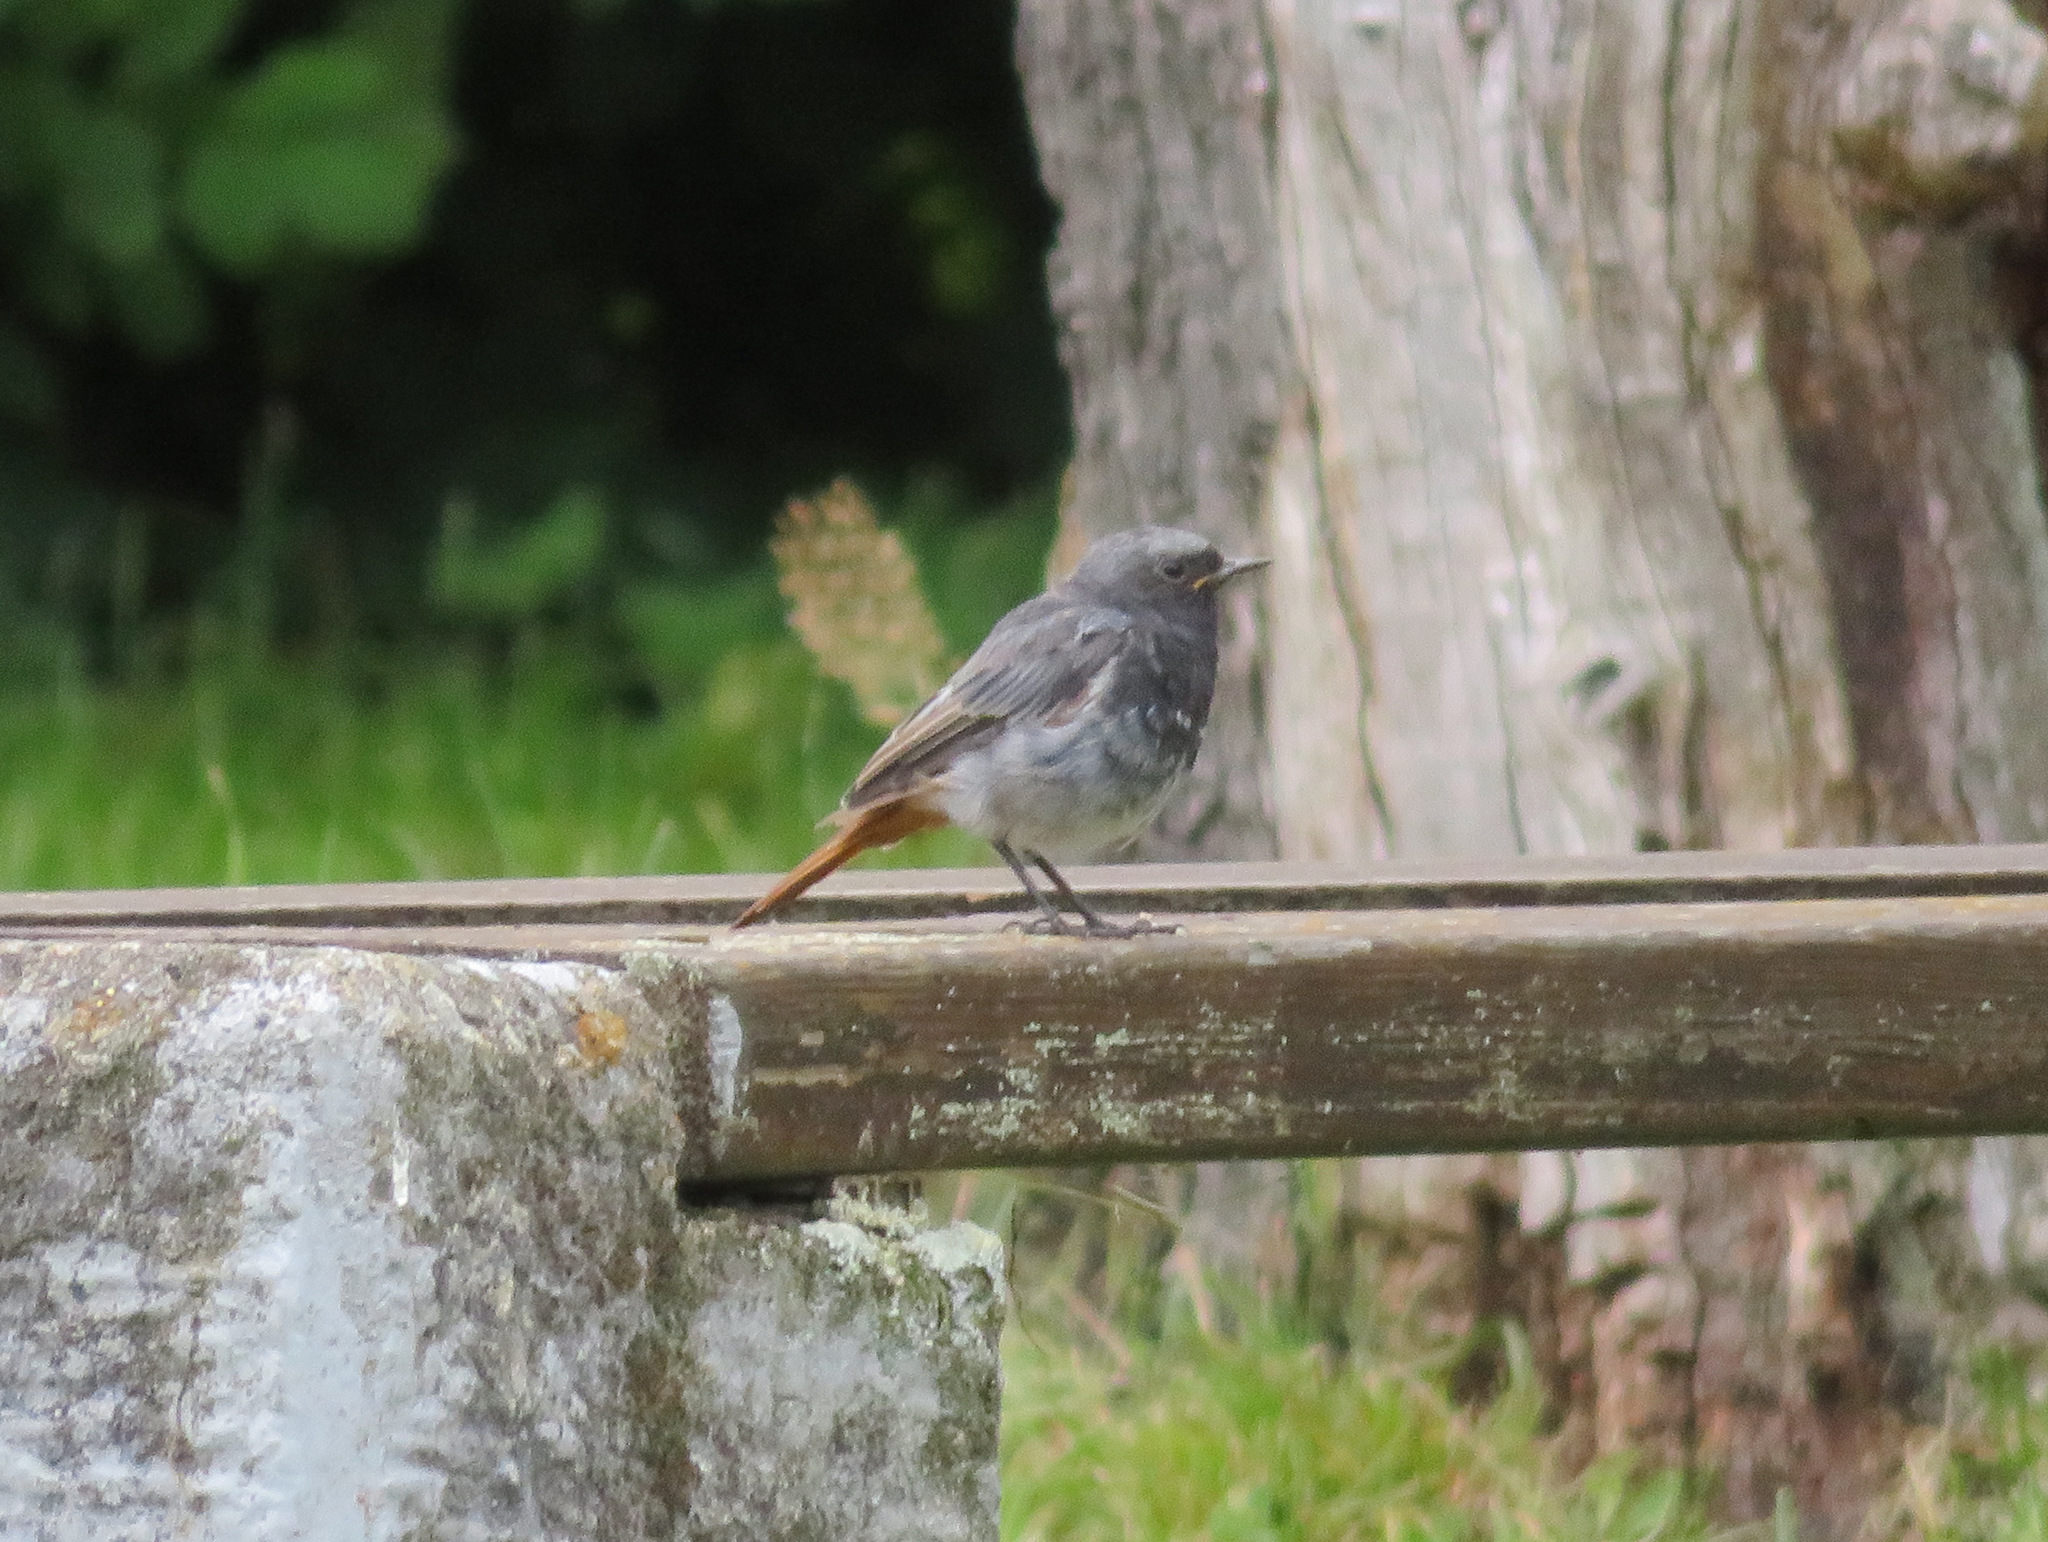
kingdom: Animalia
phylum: Chordata
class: Aves
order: Passeriformes
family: Muscicapidae
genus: Phoenicurus
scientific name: Phoenicurus ochruros
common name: Black redstart
